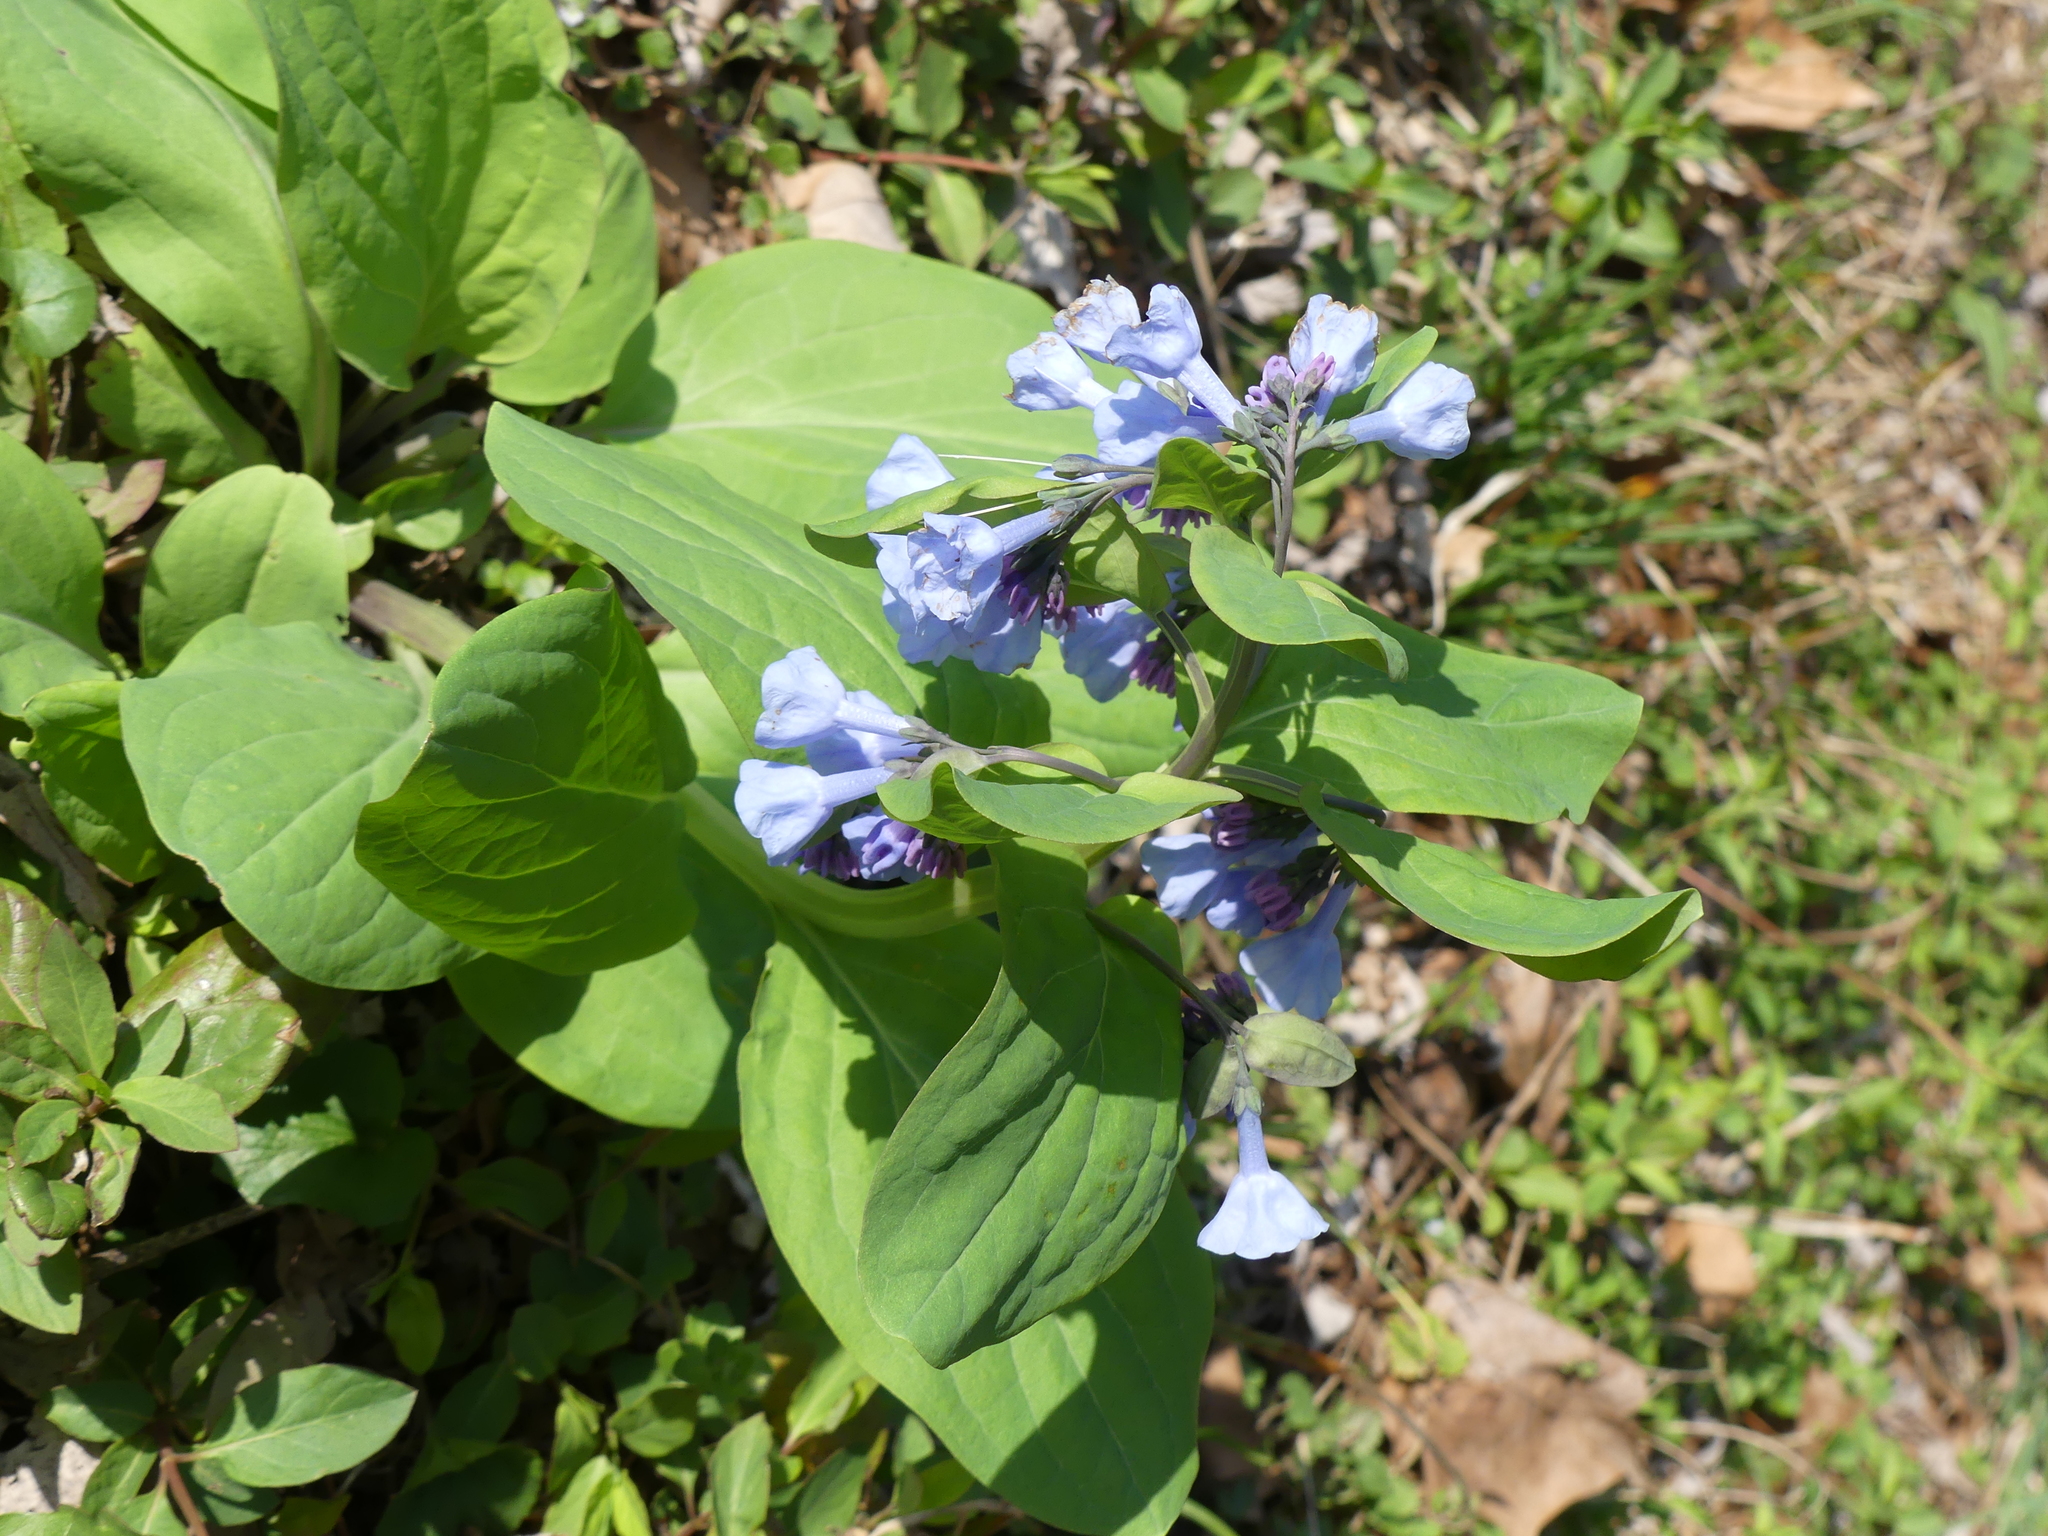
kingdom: Plantae
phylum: Tracheophyta
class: Magnoliopsida
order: Boraginales
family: Boraginaceae
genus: Mertensia
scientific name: Mertensia virginica
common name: Virginia bluebells
